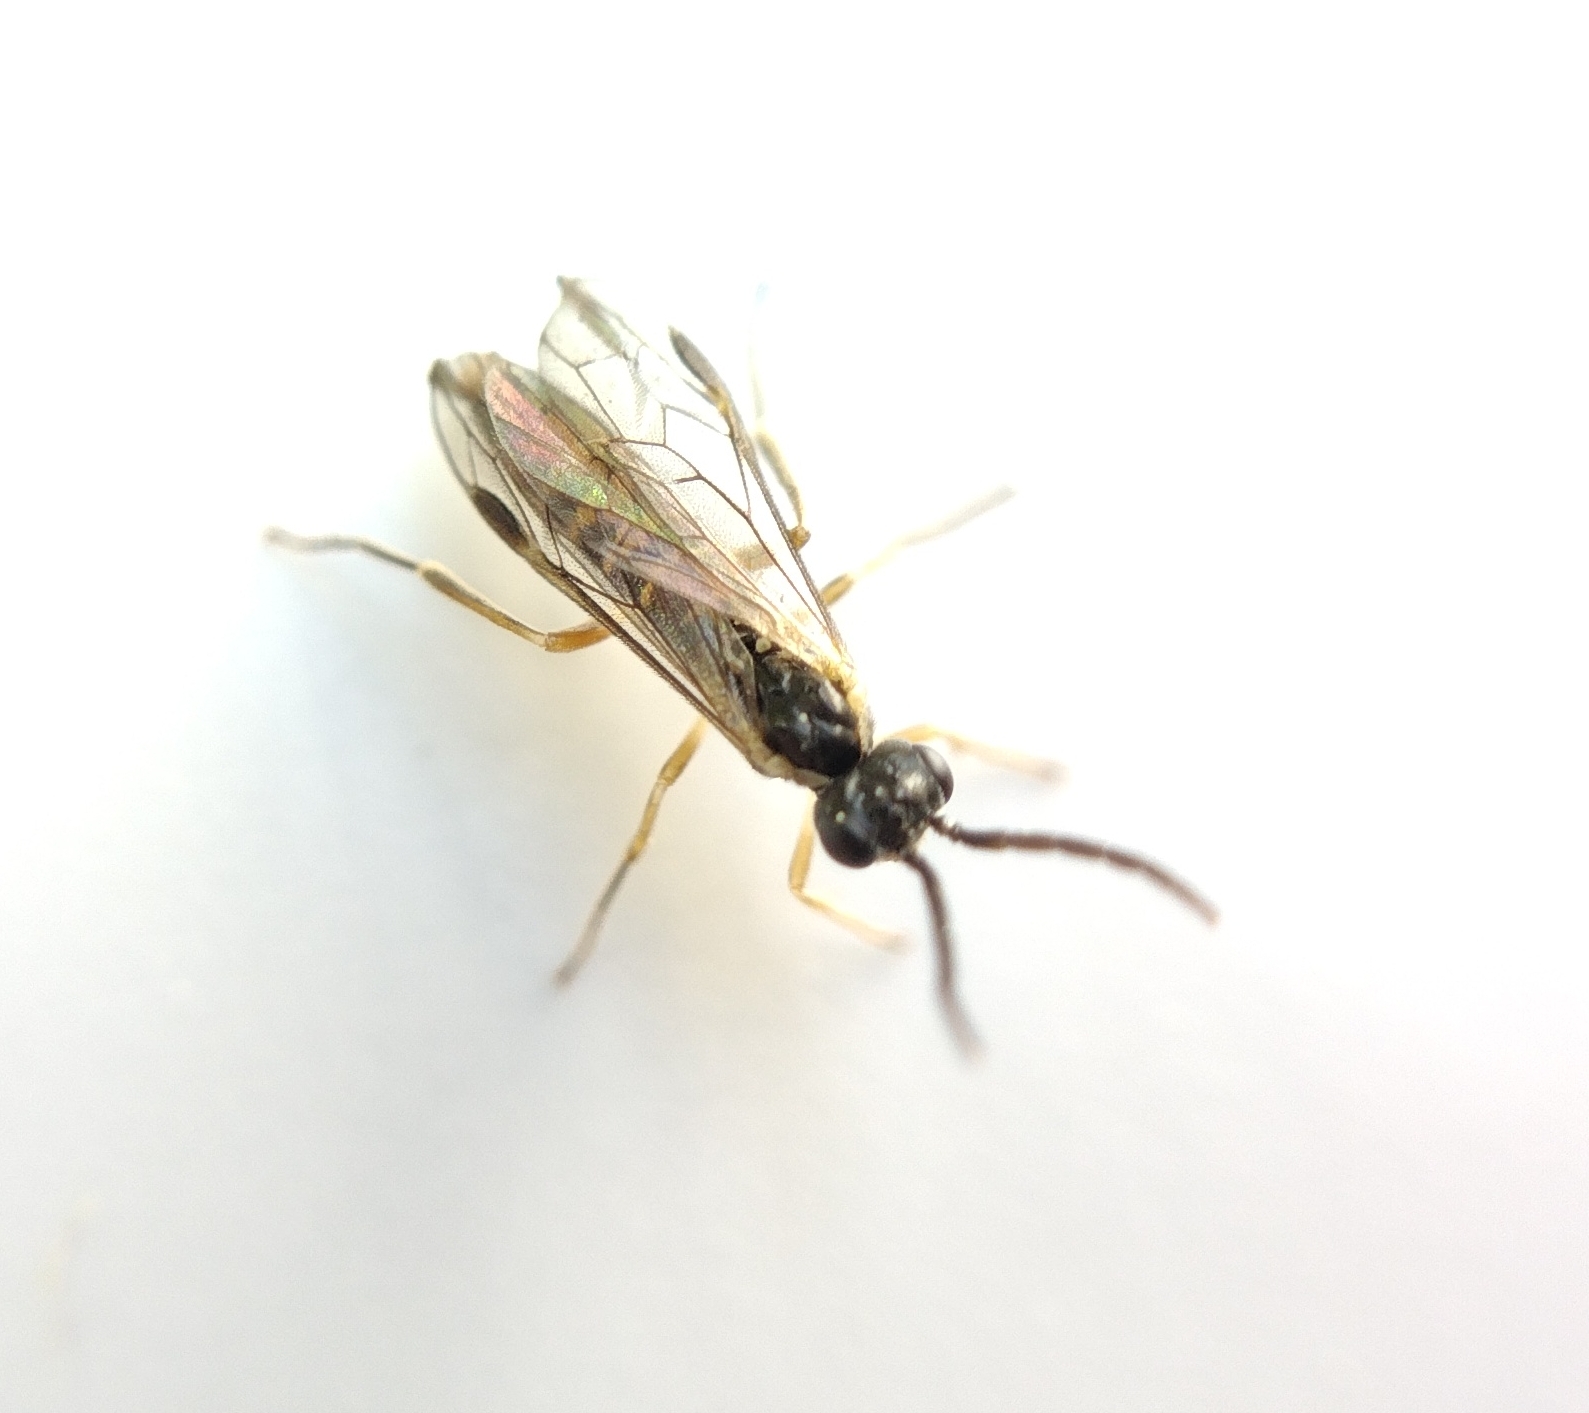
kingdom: Animalia
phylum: Arthropoda
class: Insecta
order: Hymenoptera
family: Tenthredinidae
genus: Ametastegia
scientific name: Ametastegia perla
